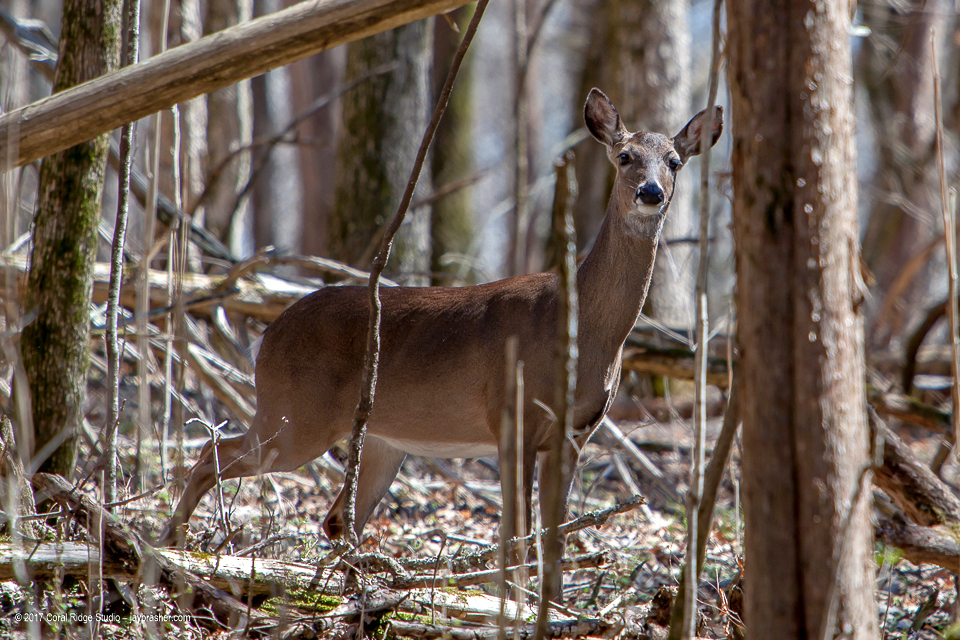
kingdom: Animalia
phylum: Chordata
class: Mammalia
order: Artiodactyla
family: Cervidae
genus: Odocoileus
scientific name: Odocoileus virginianus
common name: White-tailed deer
